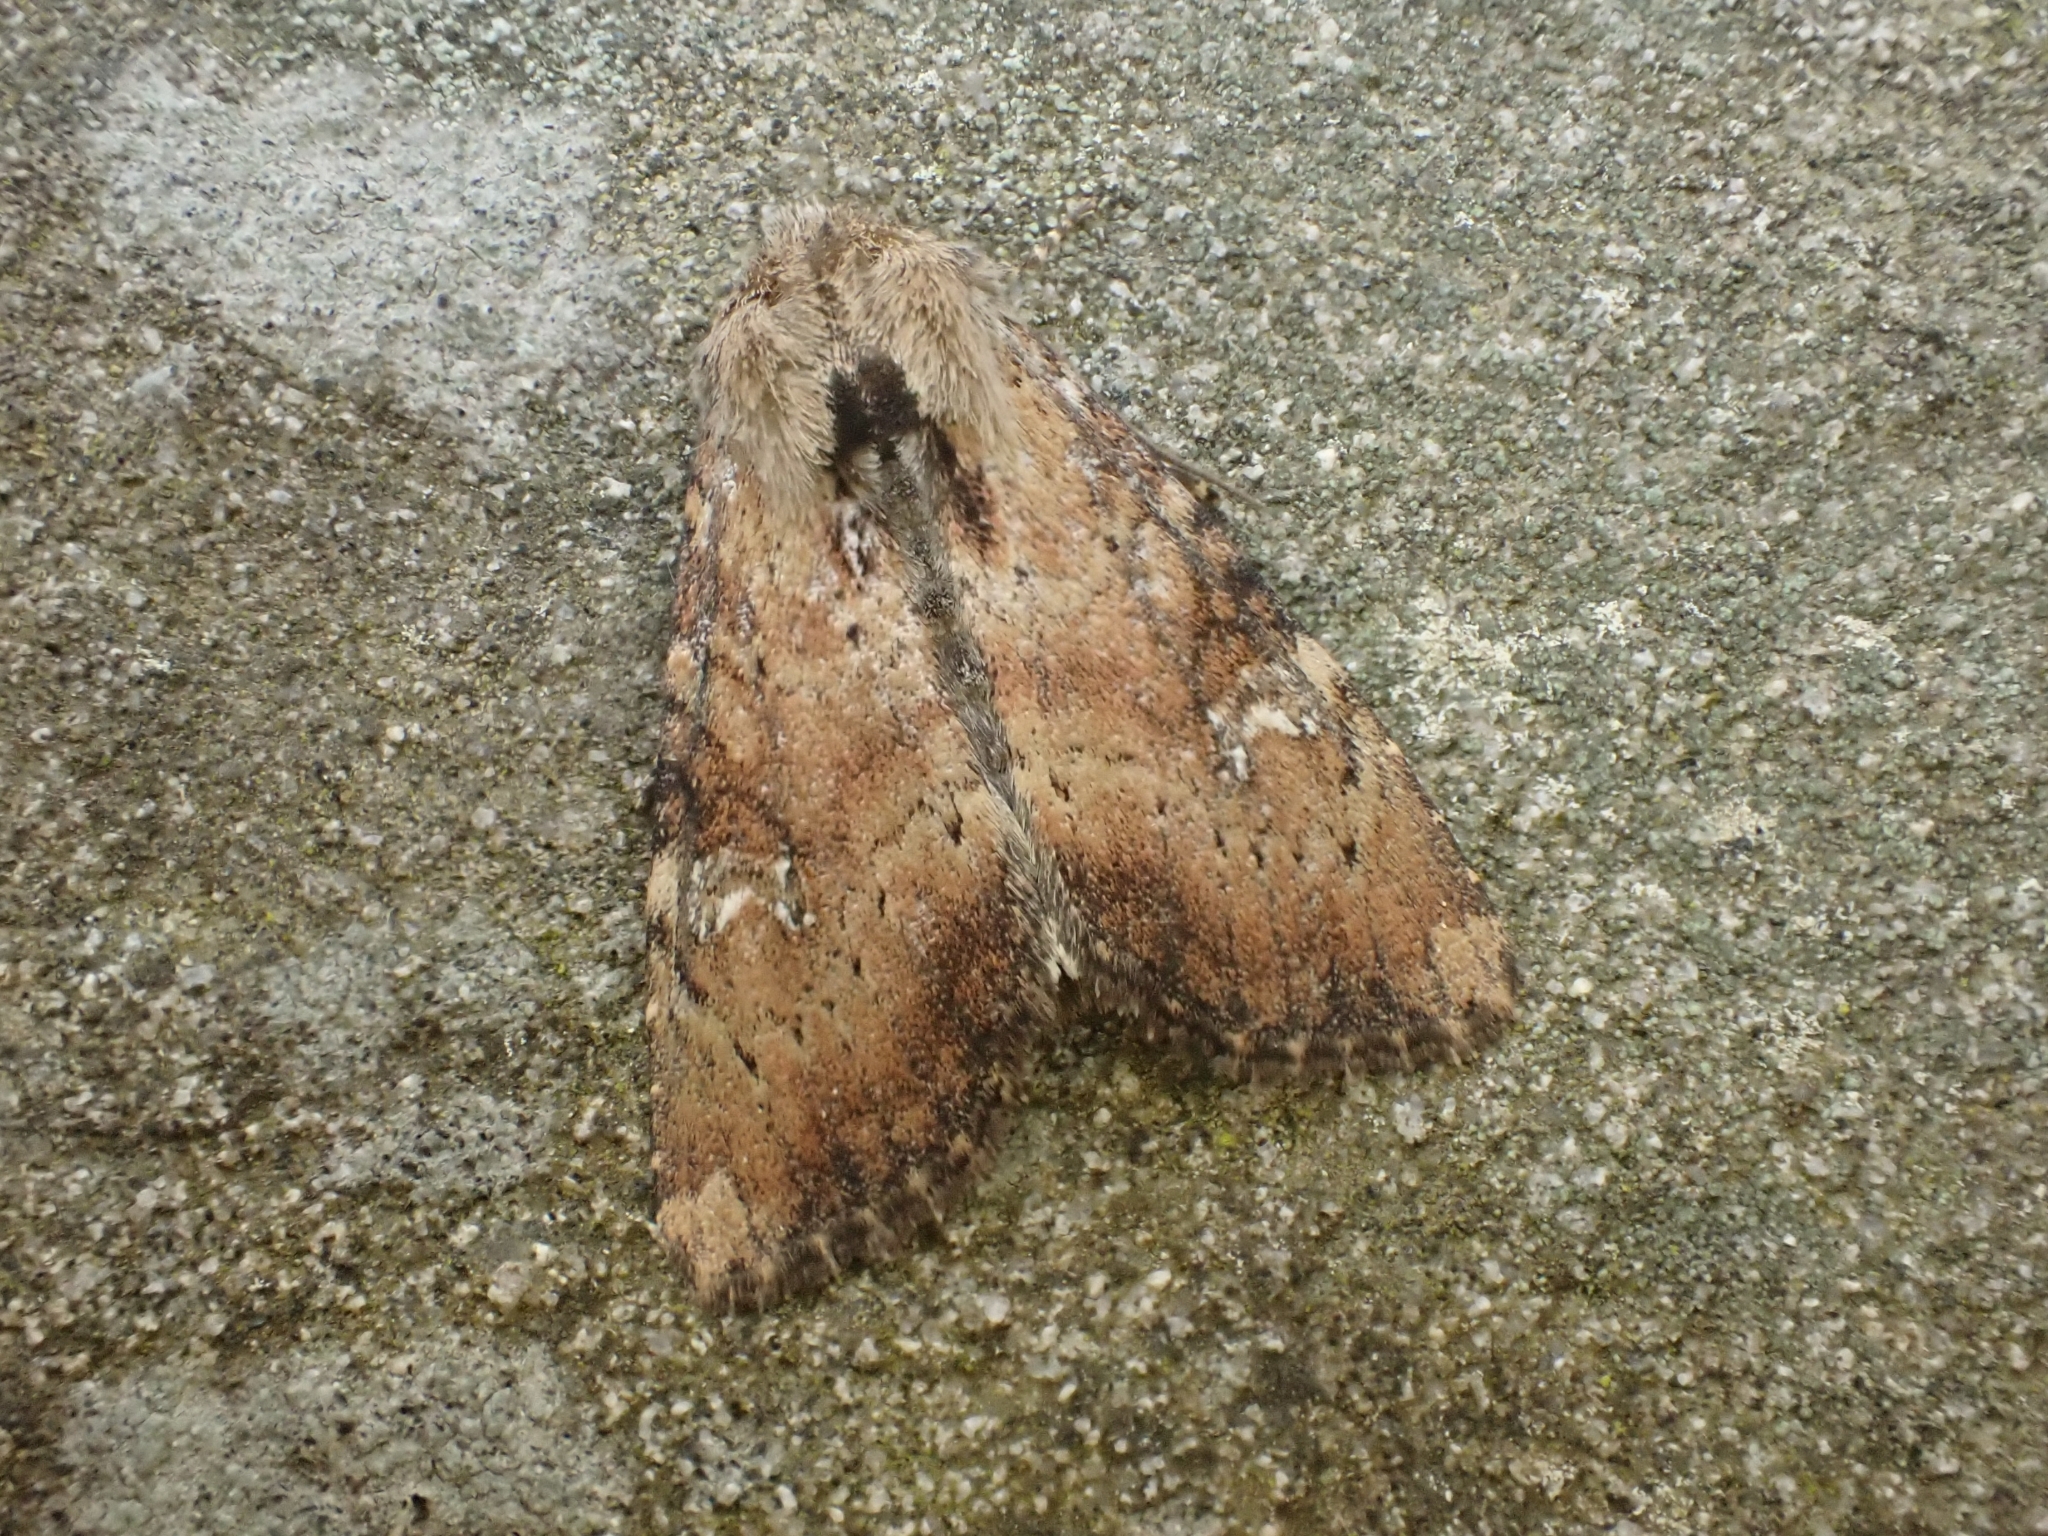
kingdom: Animalia
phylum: Arthropoda
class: Insecta
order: Lepidoptera
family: Noctuidae
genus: Loscopia
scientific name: Loscopia scolopacina
